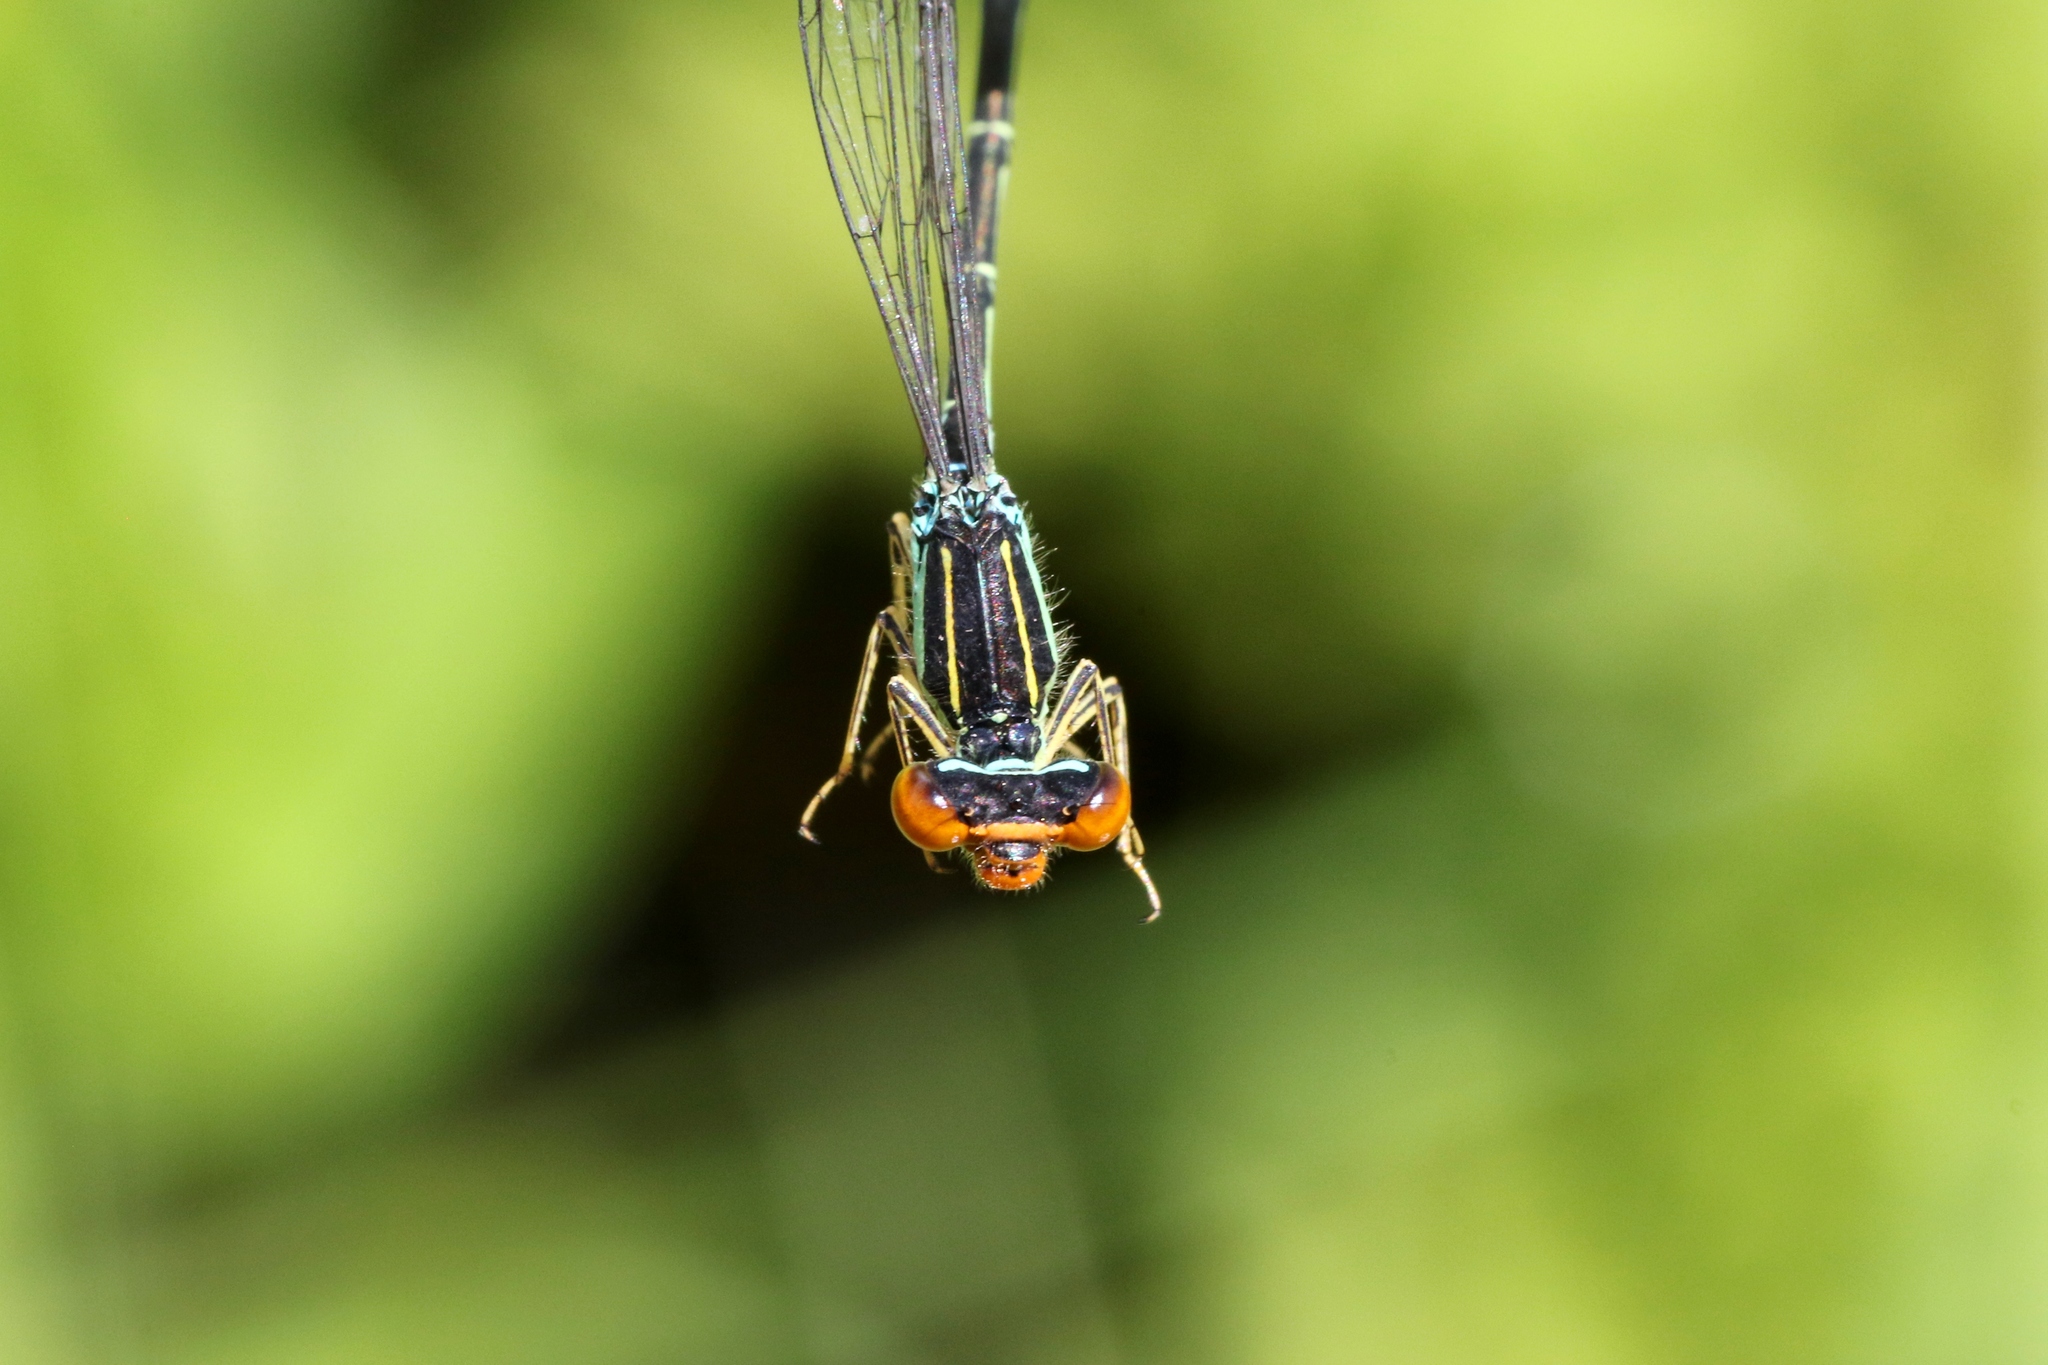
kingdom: Animalia
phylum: Arthropoda
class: Insecta
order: Odonata
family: Coenagrionidae
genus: Enallagma
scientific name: Enallagma antennatum
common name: Rainbow bluet
